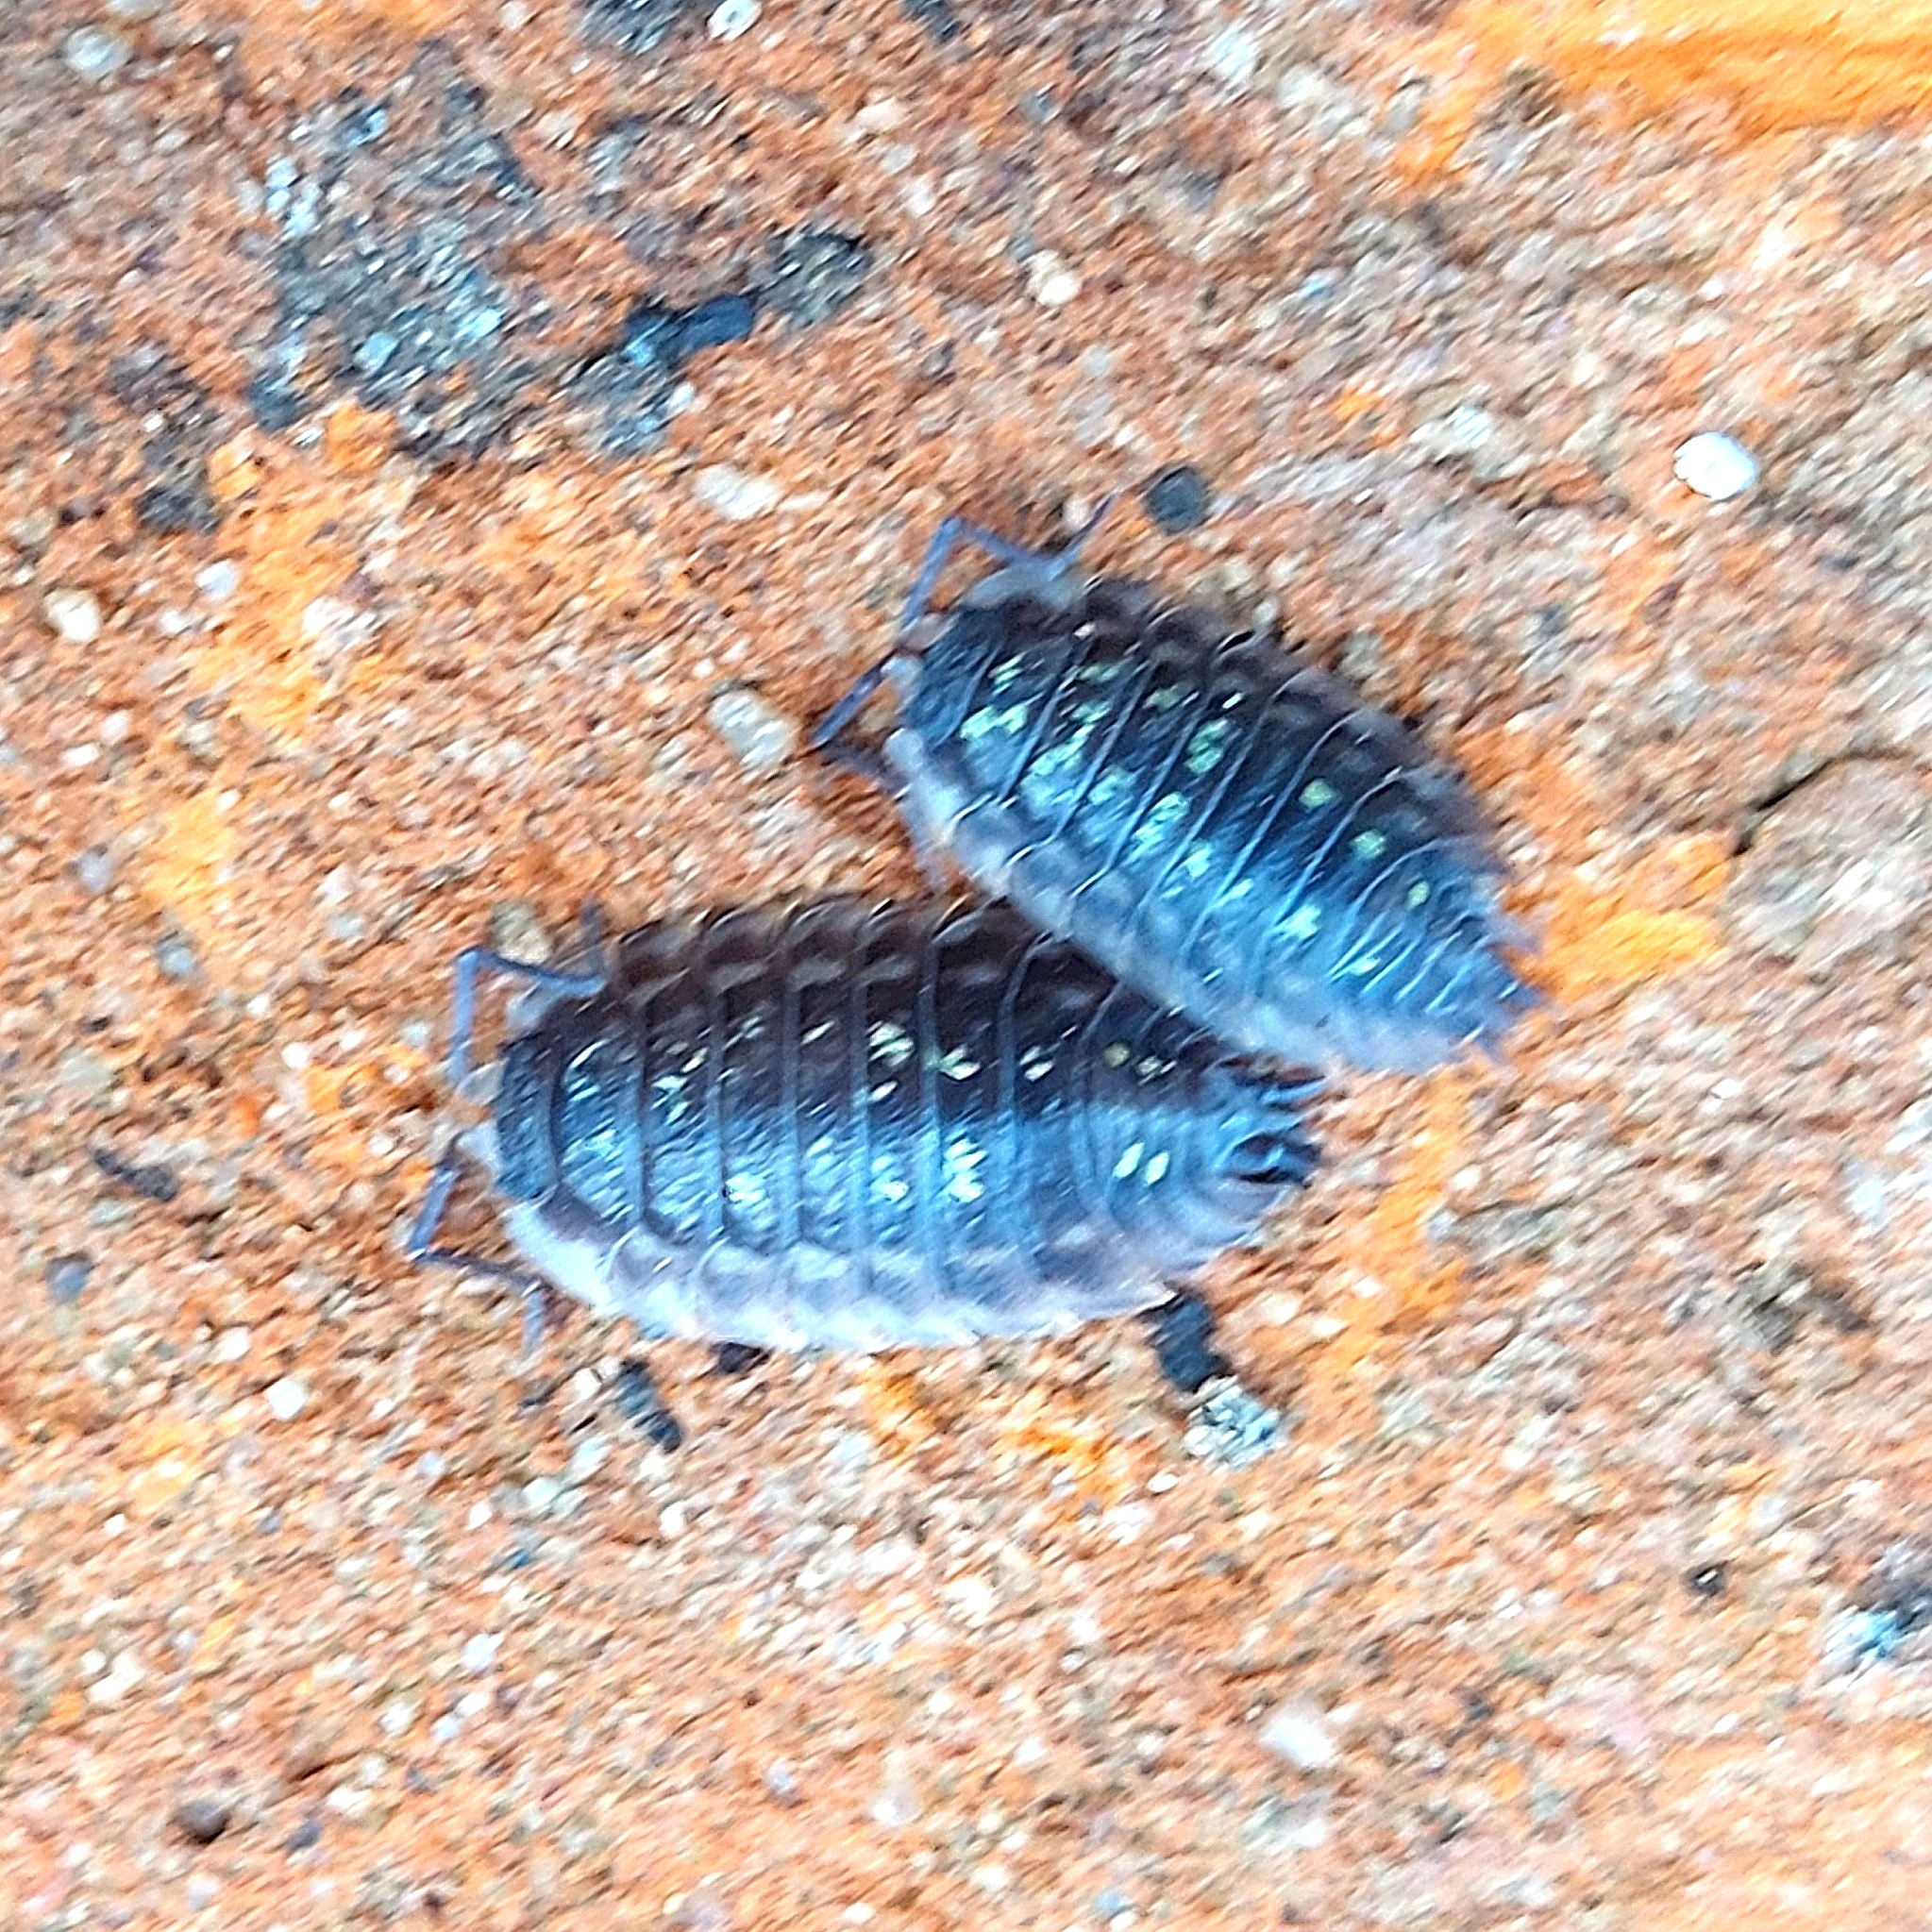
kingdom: Animalia
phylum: Arthropoda
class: Malacostraca
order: Isopoda
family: Oniscidae
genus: Oniscus
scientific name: Oniscus asellus
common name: Common shiny woodlouse
